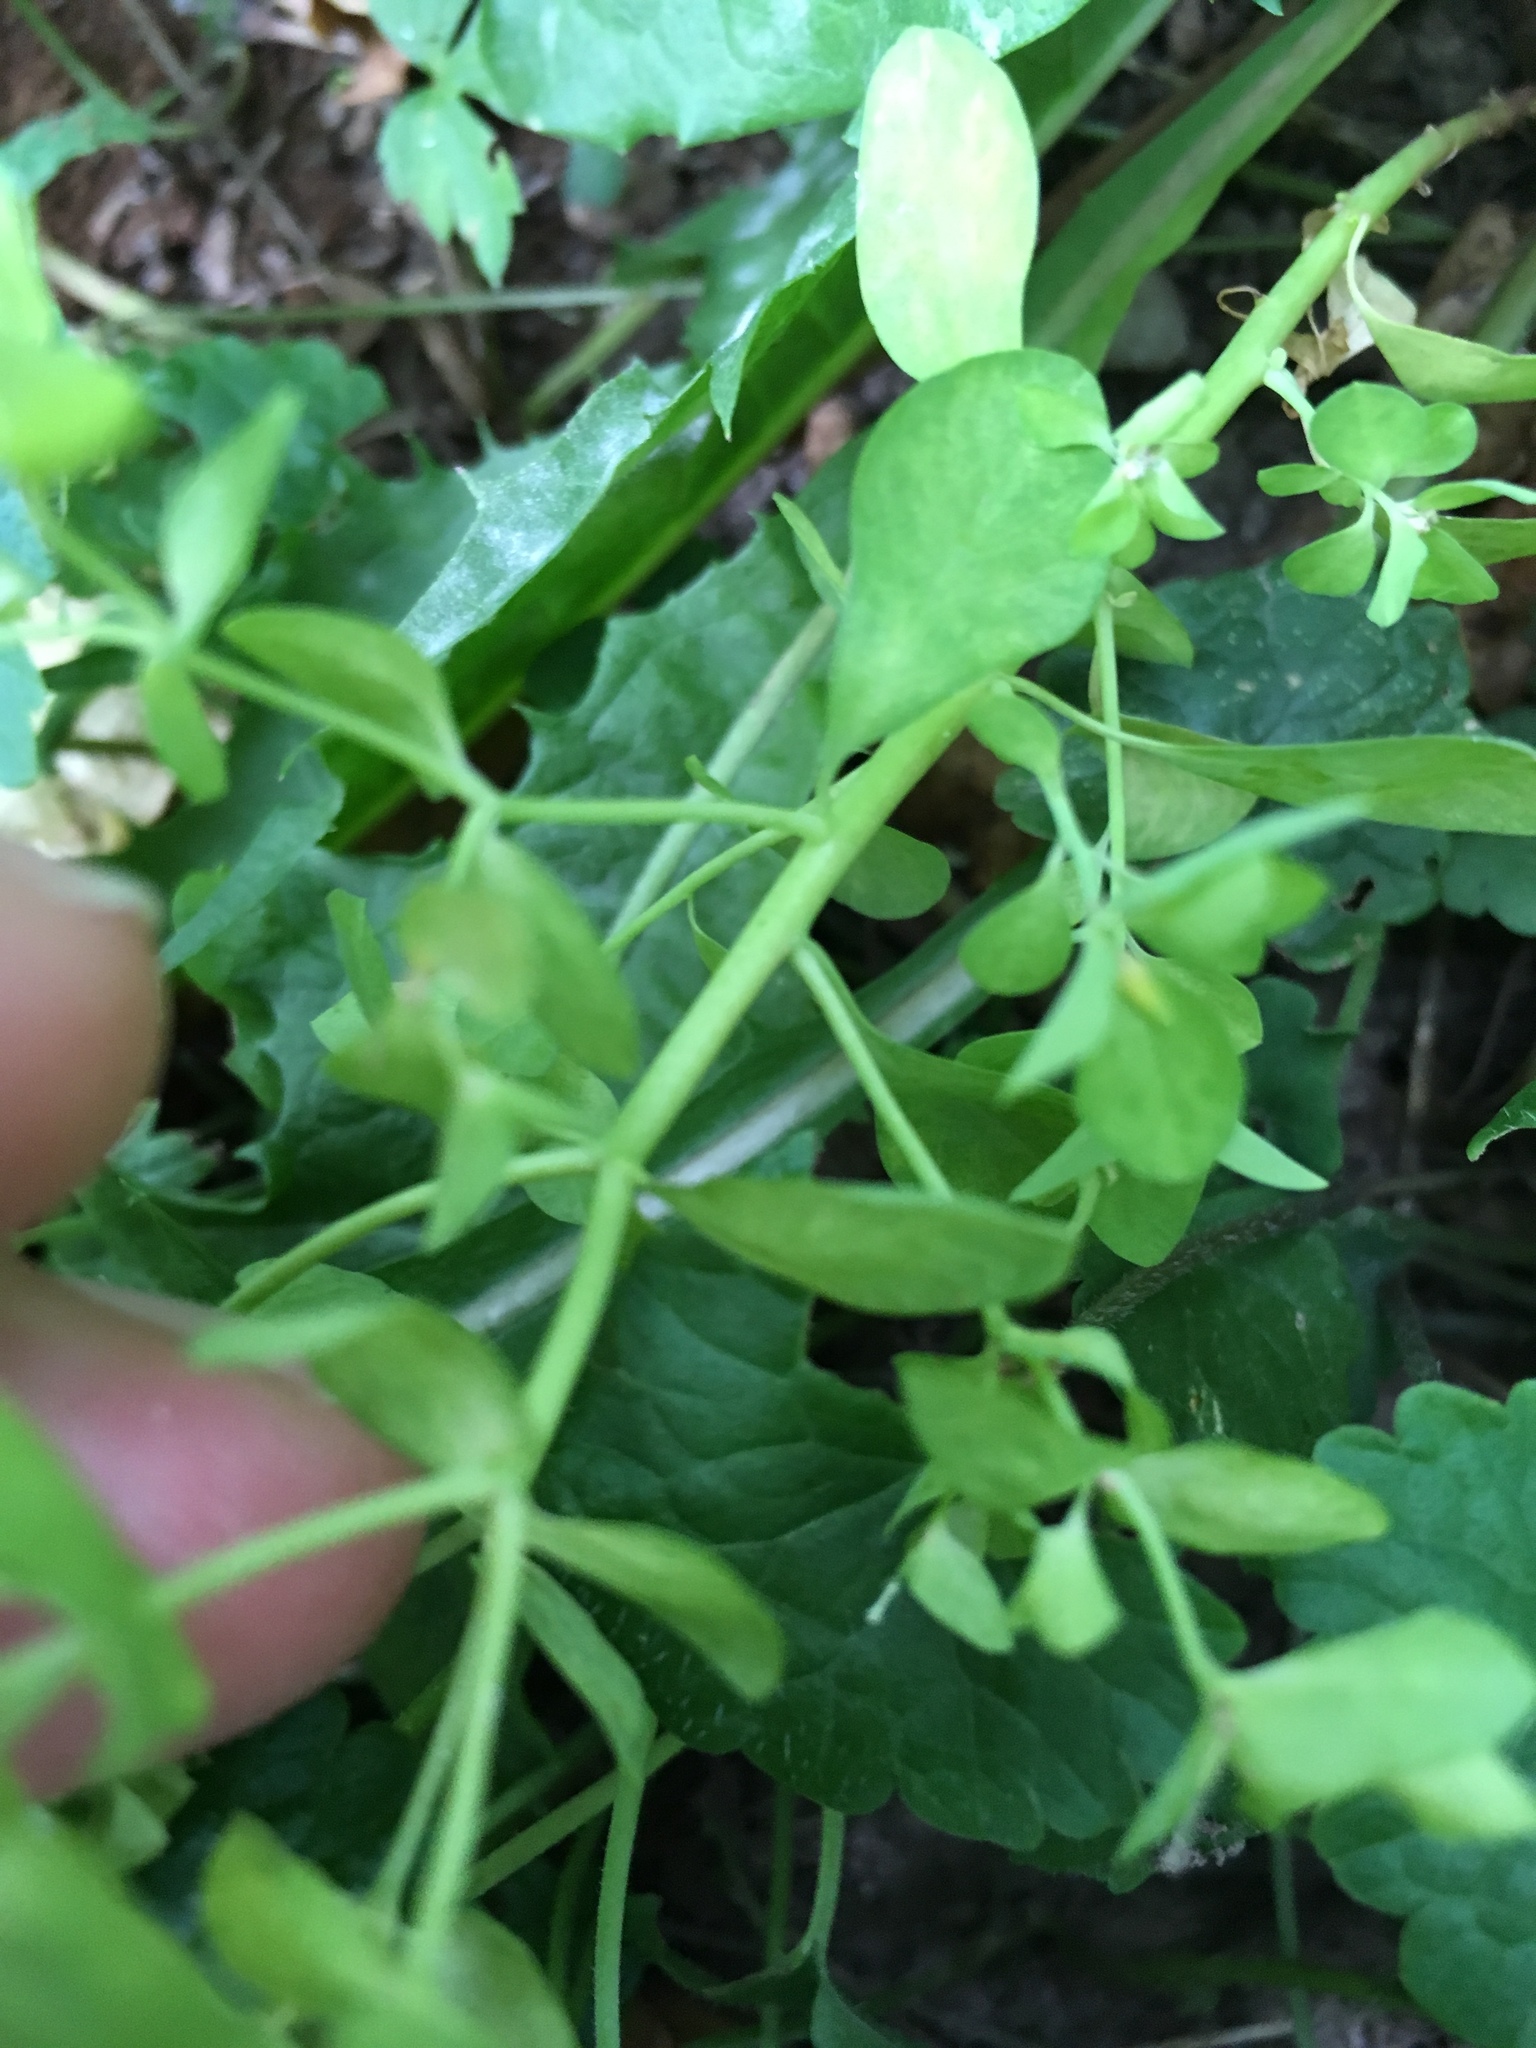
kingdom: Plantae
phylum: Tracheophyta
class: Magnoliopsida
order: Malpighiales
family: Euphorbiaceae
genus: Euphorbia
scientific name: Euphorbia peplus
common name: Petty spurge
